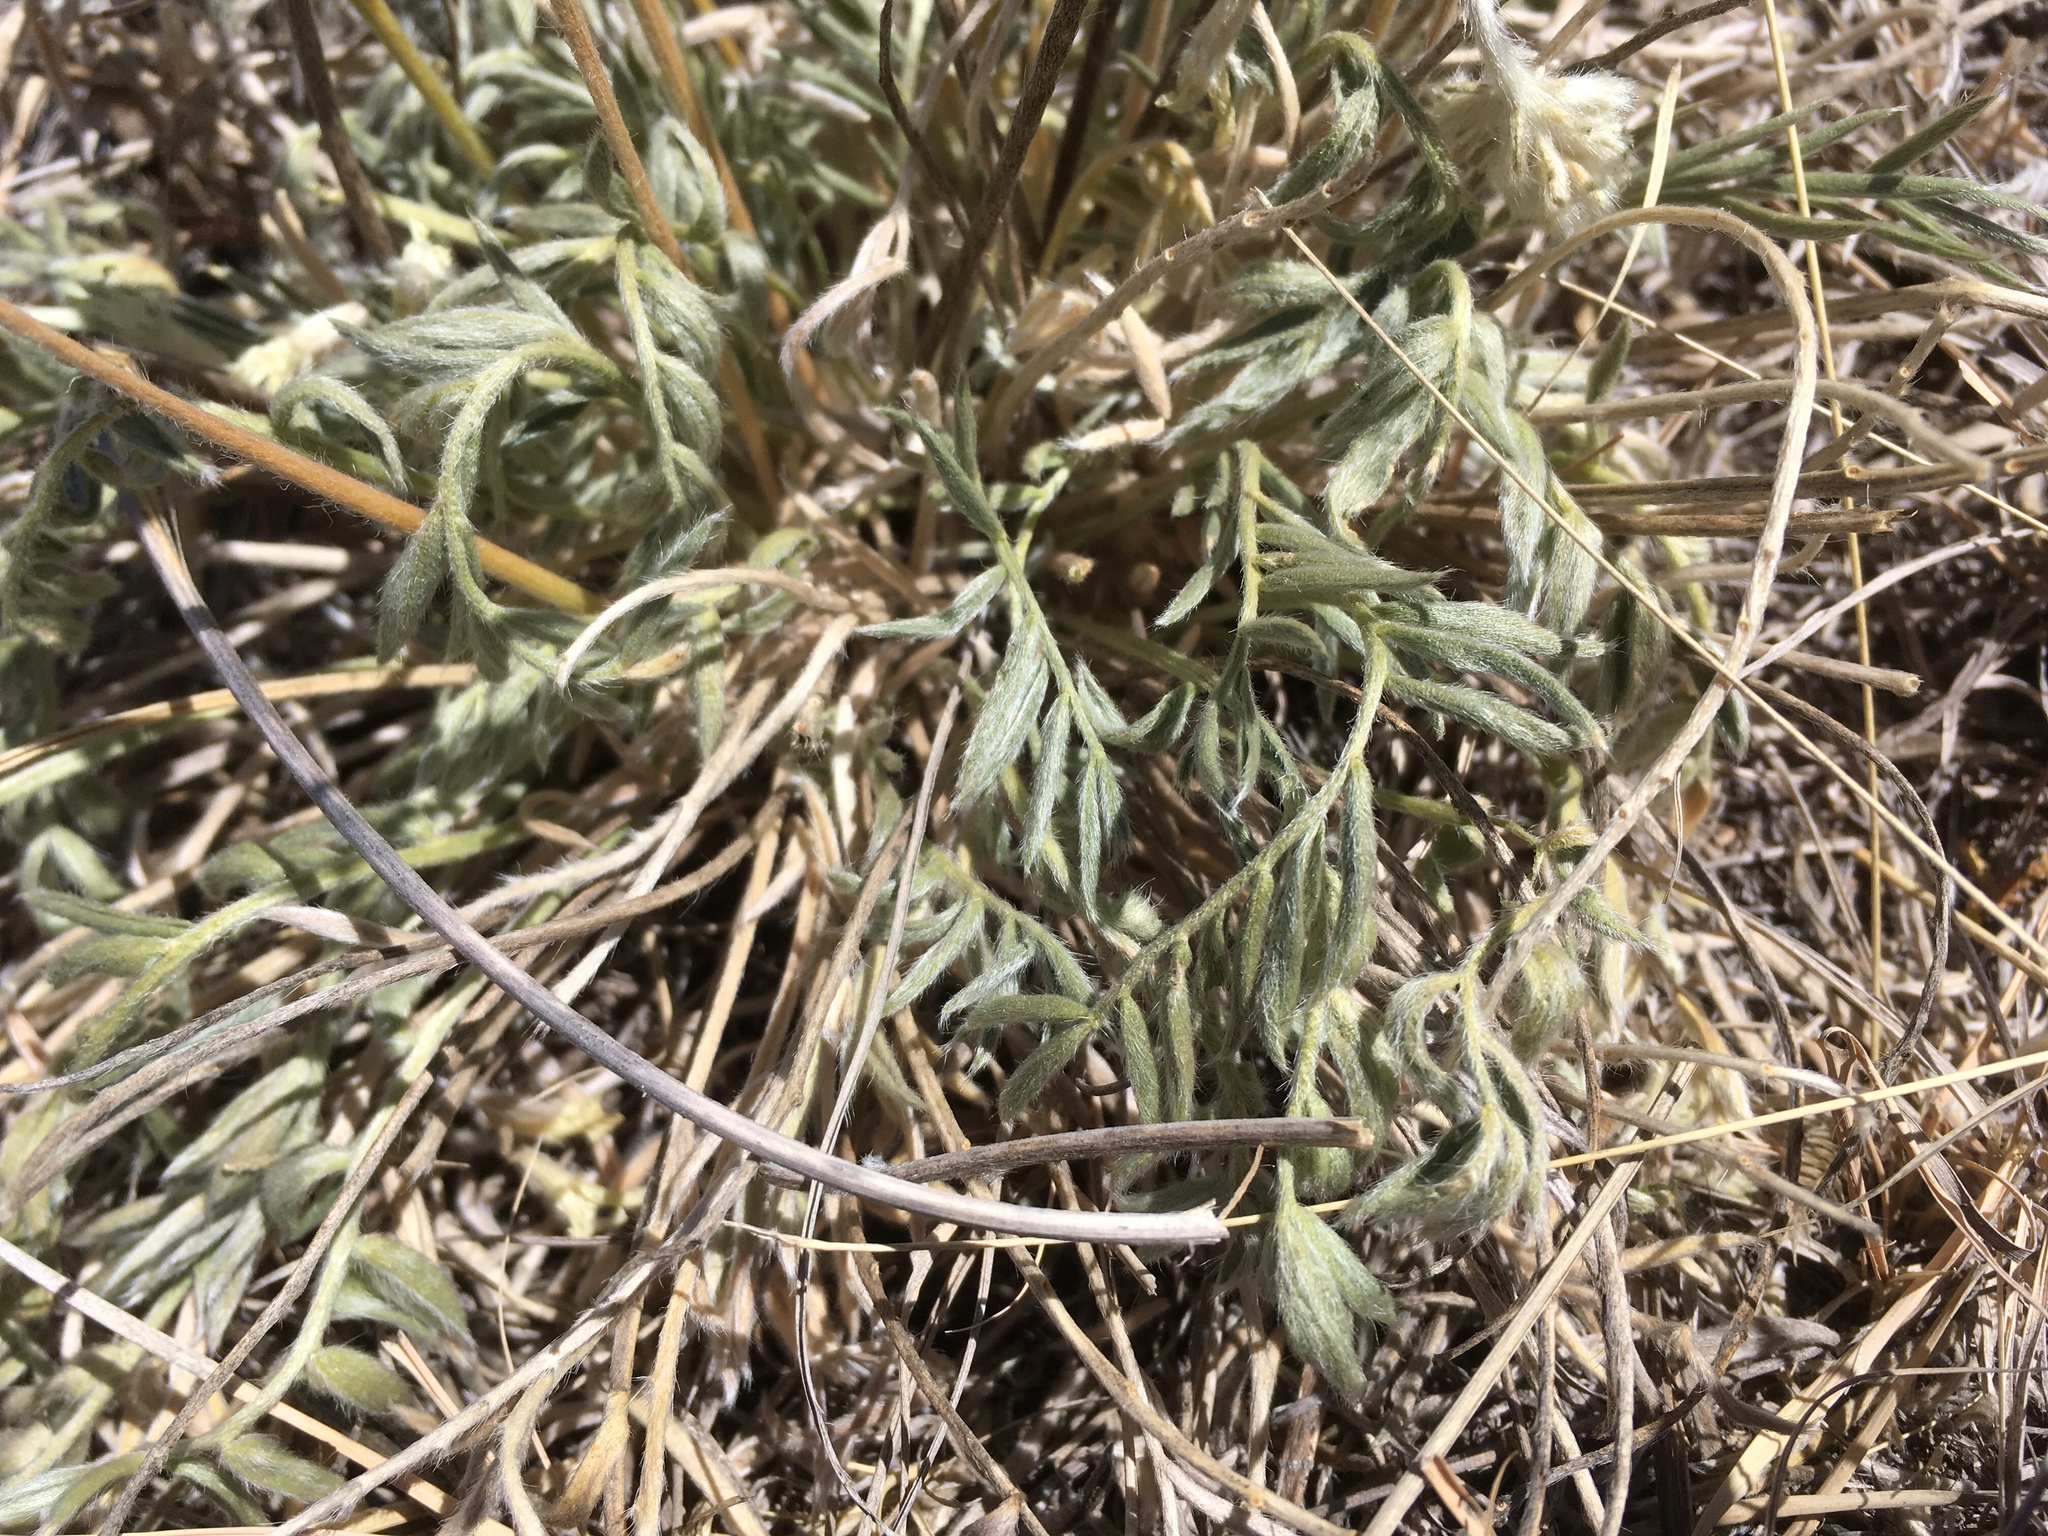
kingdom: Plantae
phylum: Tracheophyta
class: Magnoliopsida
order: Fabales
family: Fabaceae
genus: Oxytropis
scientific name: Oxytropis sericea
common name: Silky locoweed
